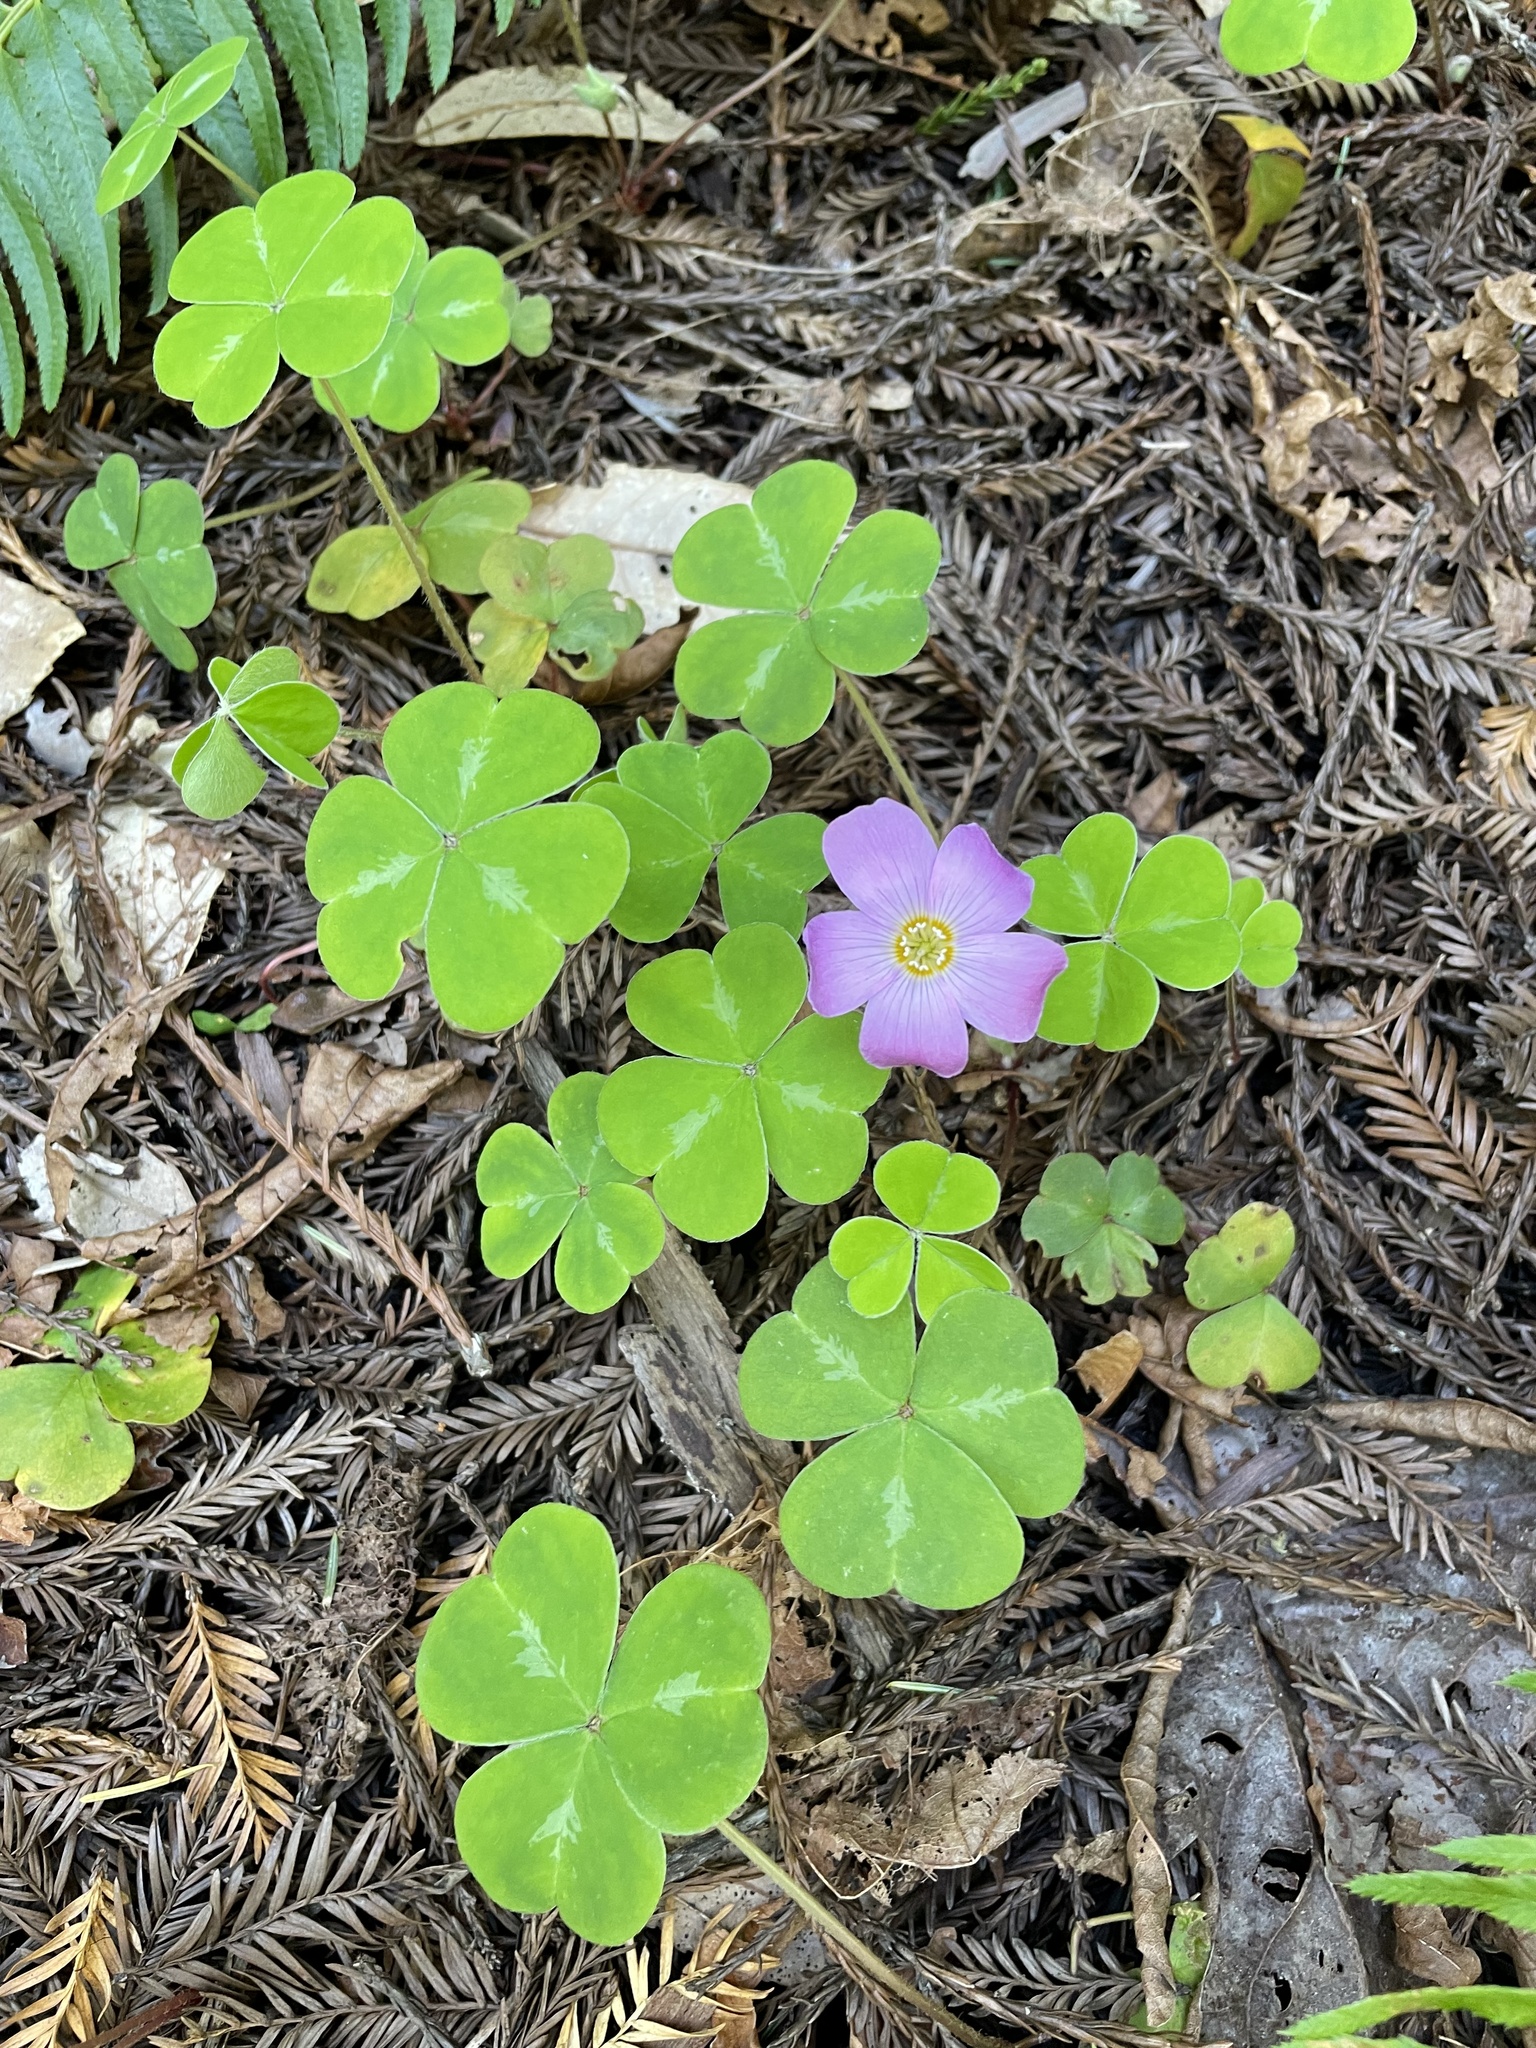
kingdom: Plantae
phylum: Tracheophyta
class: Magnoliopsida
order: Oxalidales
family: Oxalidaceae
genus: Oxalis
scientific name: Oxalis oregana
